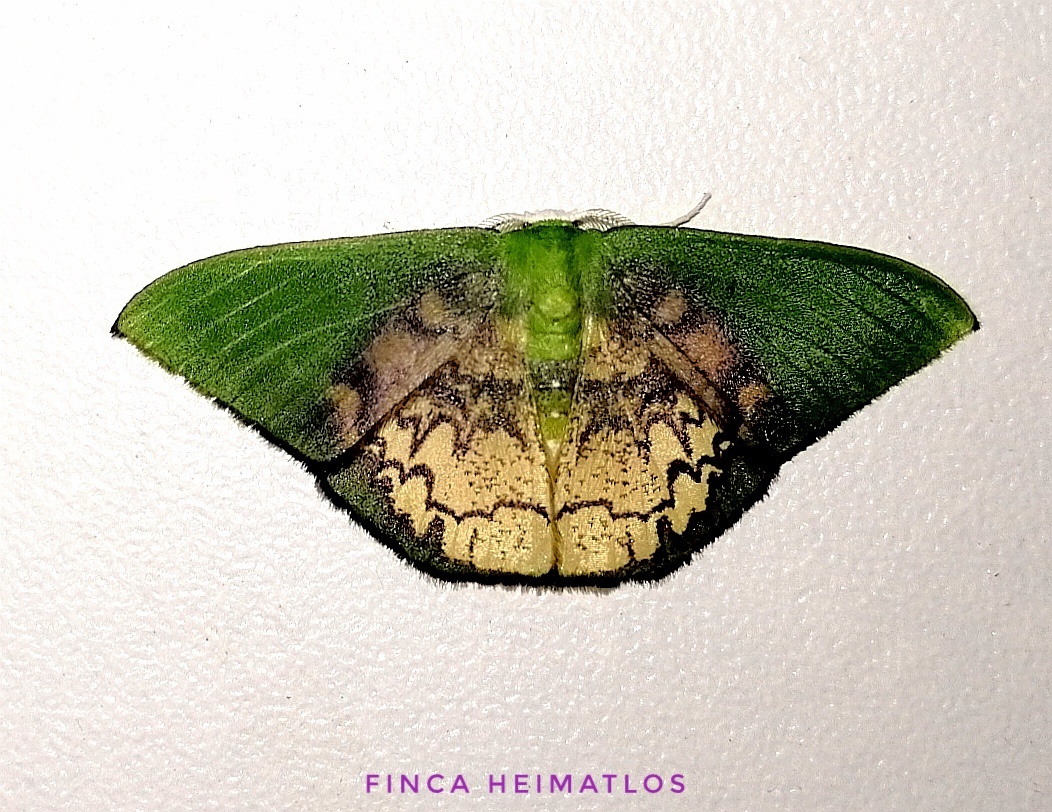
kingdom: Animalia
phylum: Arthropoda
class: Insecta
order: Lepidoptera
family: Geometridae
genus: Tachychlora
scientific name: Tachychlora amilletes
